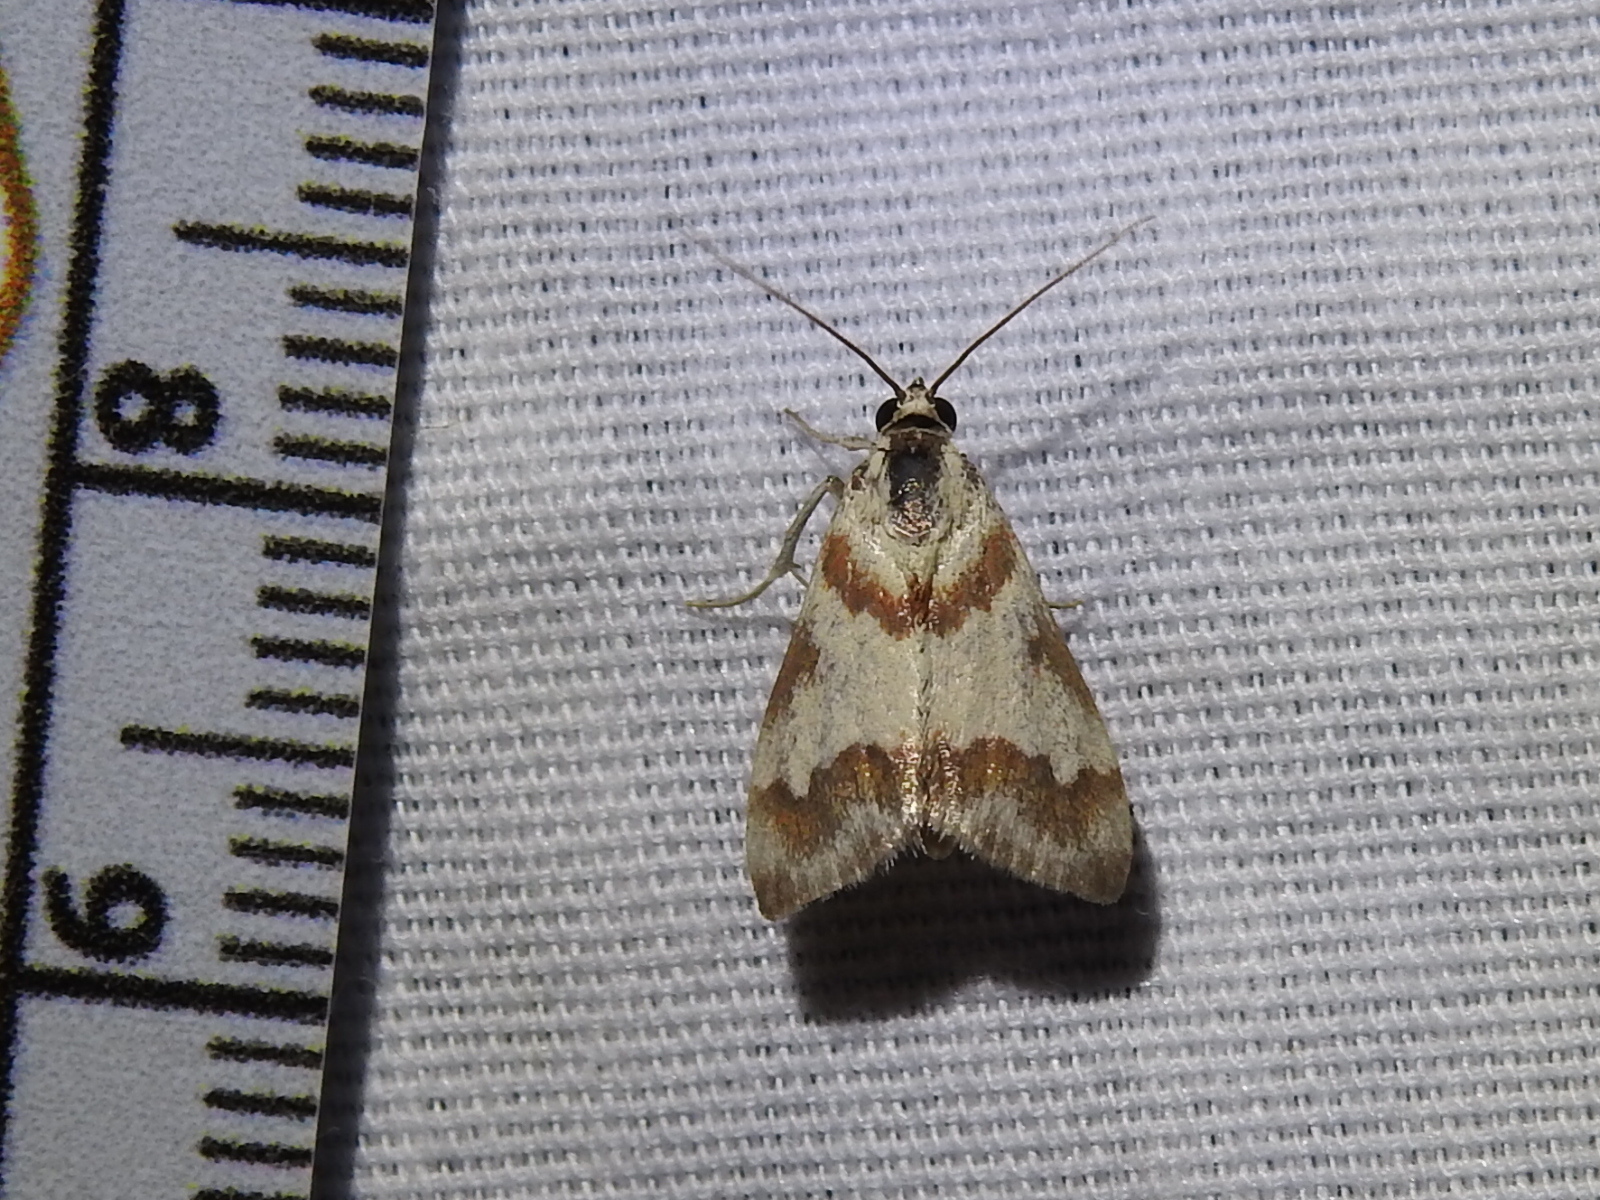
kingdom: Animalia
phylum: Arthropoda
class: Insecta
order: Lepidoptera
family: Crambidae
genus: Noctuelia
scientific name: Noctuelia Mimoschinia rufofascialis
